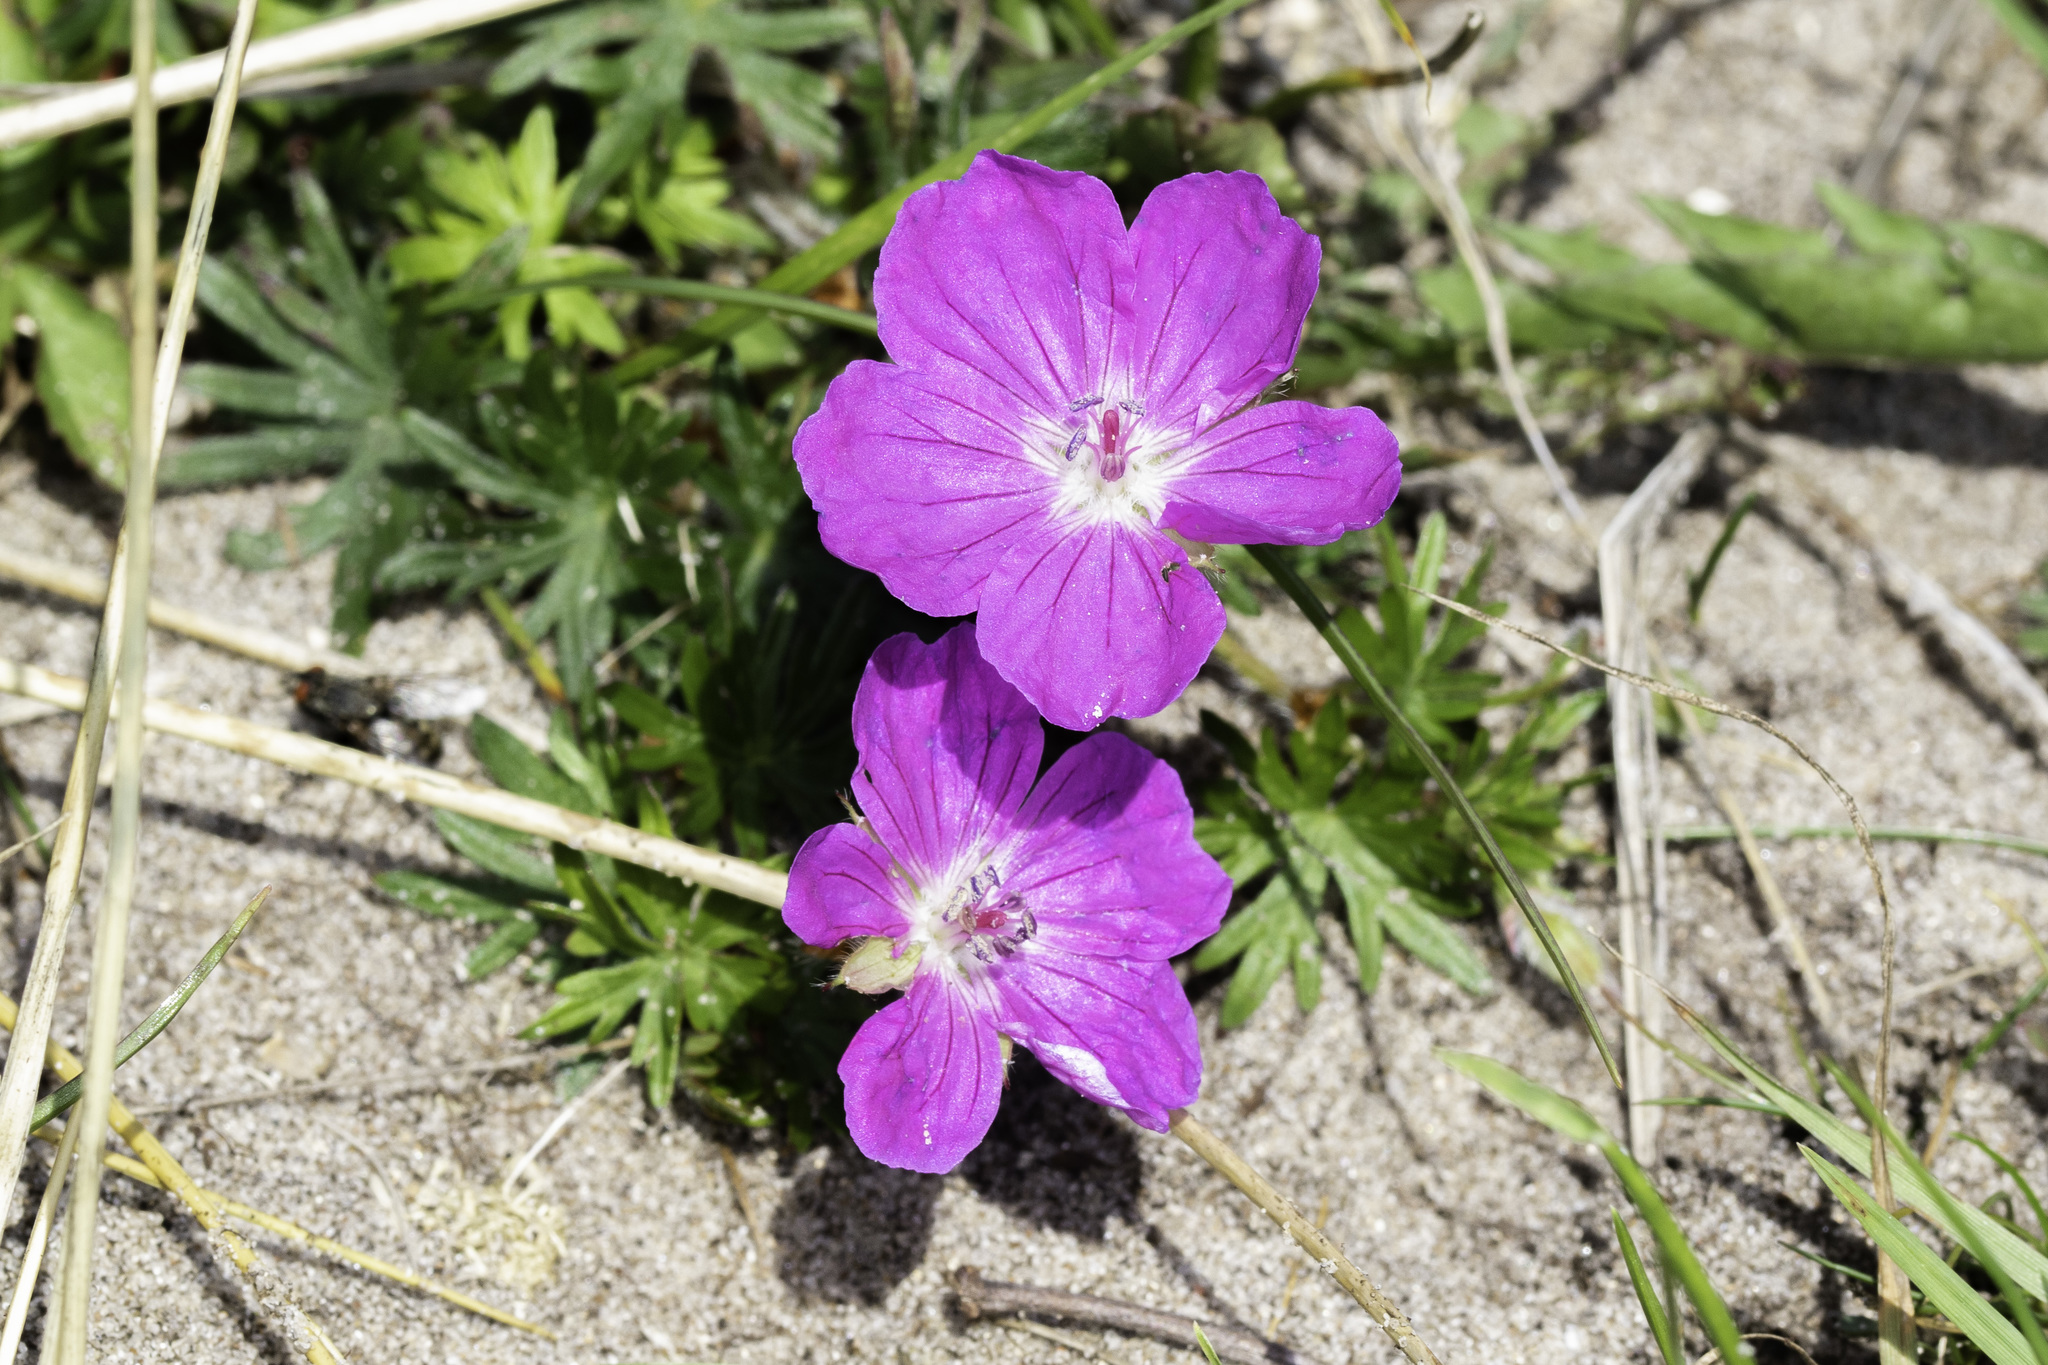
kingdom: Plantae
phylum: Tracheophyta
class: Magnoliopsida
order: Geraniales
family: Geraniaceae
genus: Geranium
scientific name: Geranium sanguineum
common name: Bloody crane's-bill
